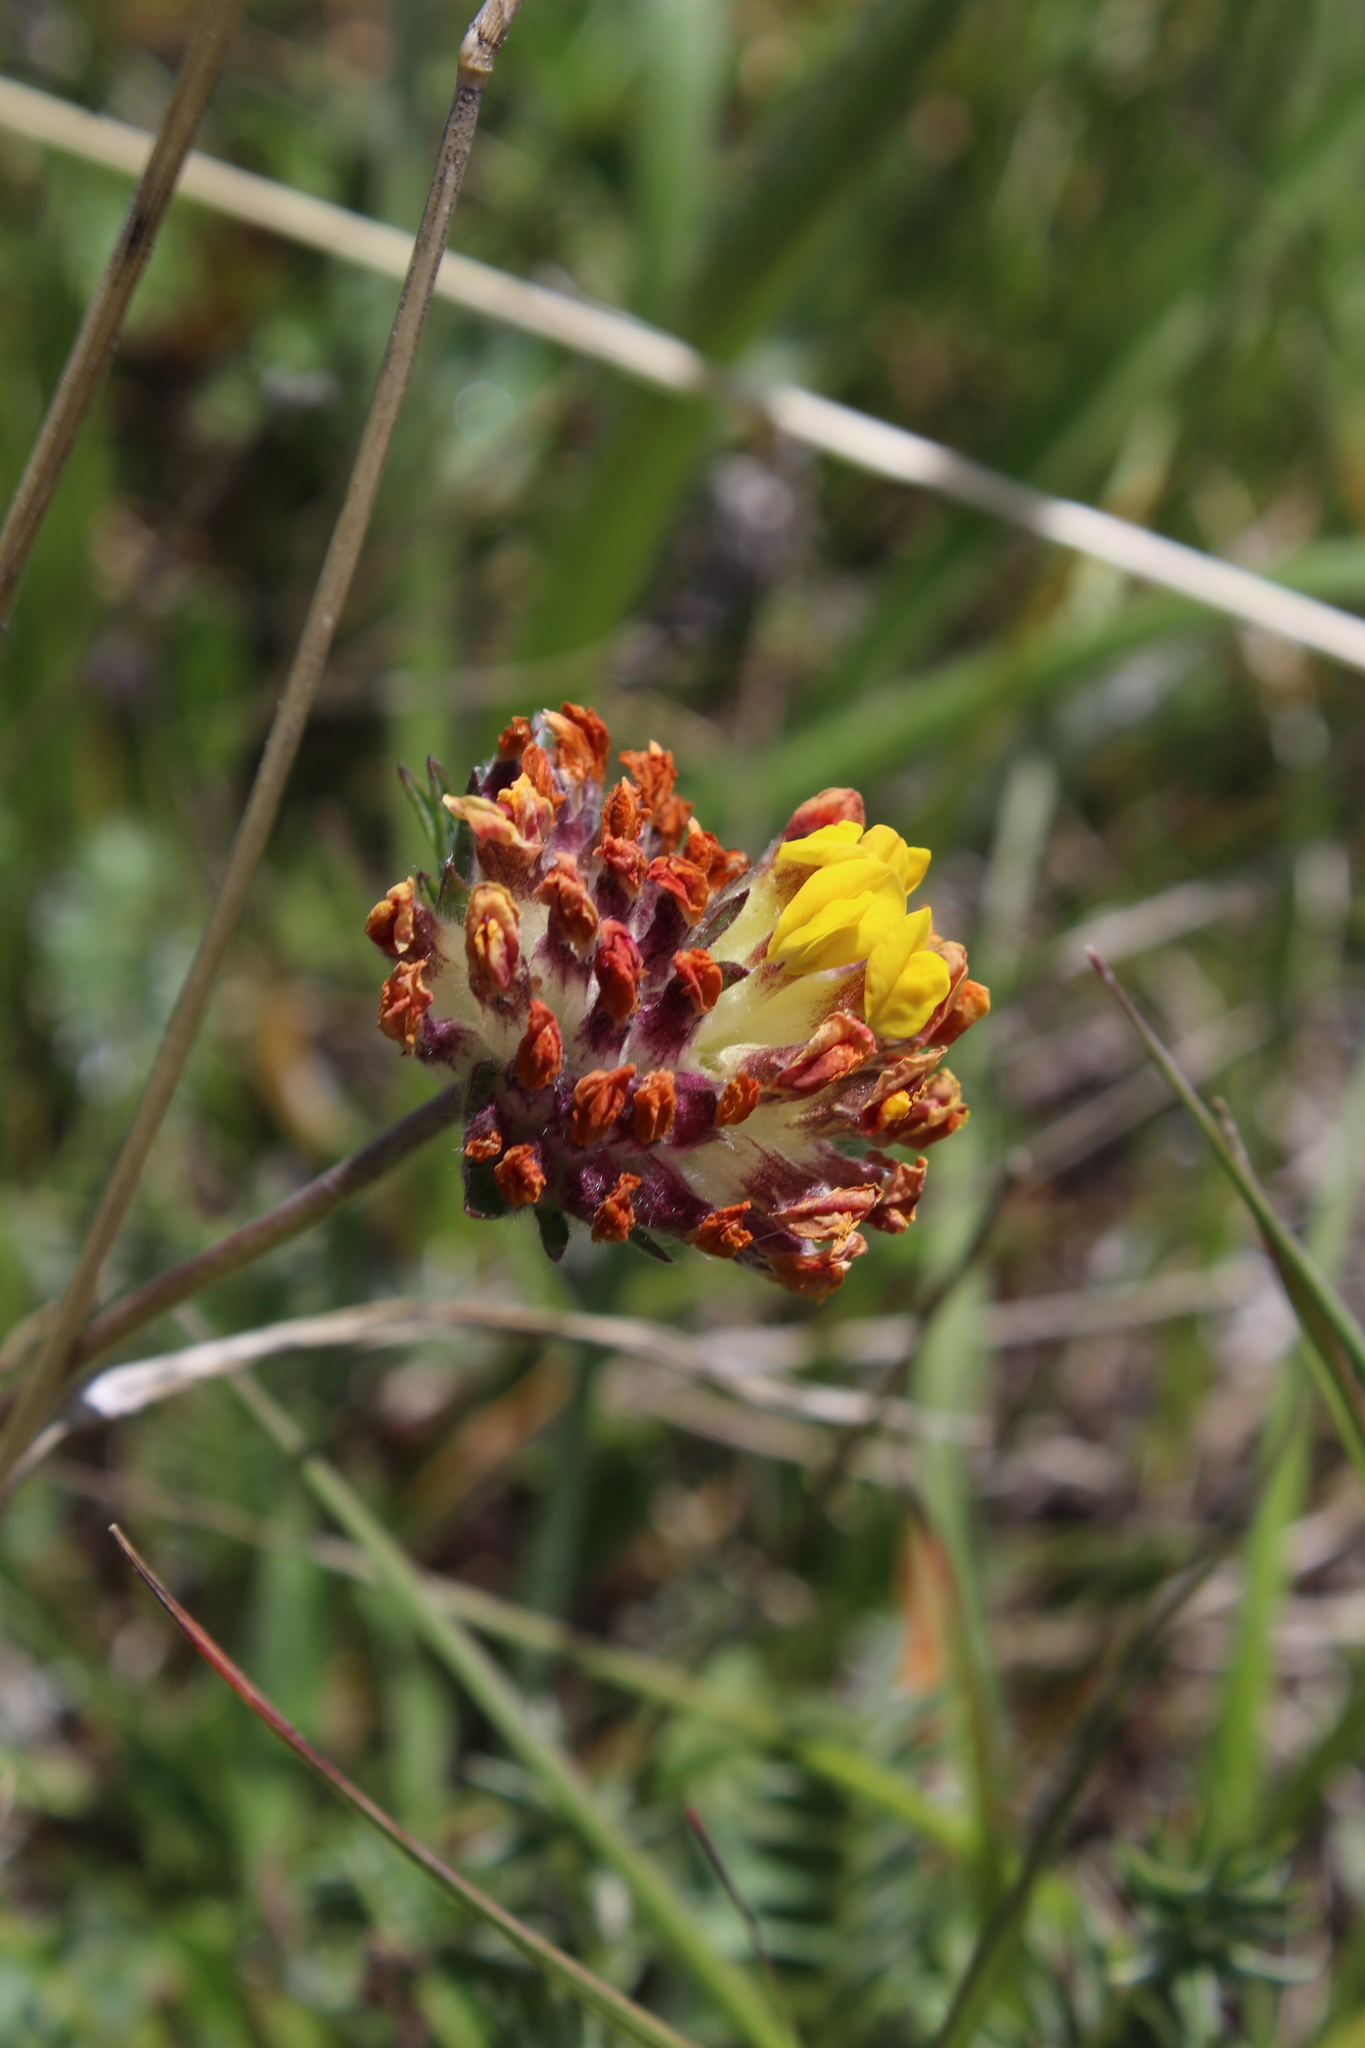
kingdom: Plantae
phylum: Tracheophyta
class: Magnoliopsida
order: Fabales
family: Fabaceae
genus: Anthyllis
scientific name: Anthyllis vulneraria
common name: Kidney vetch
